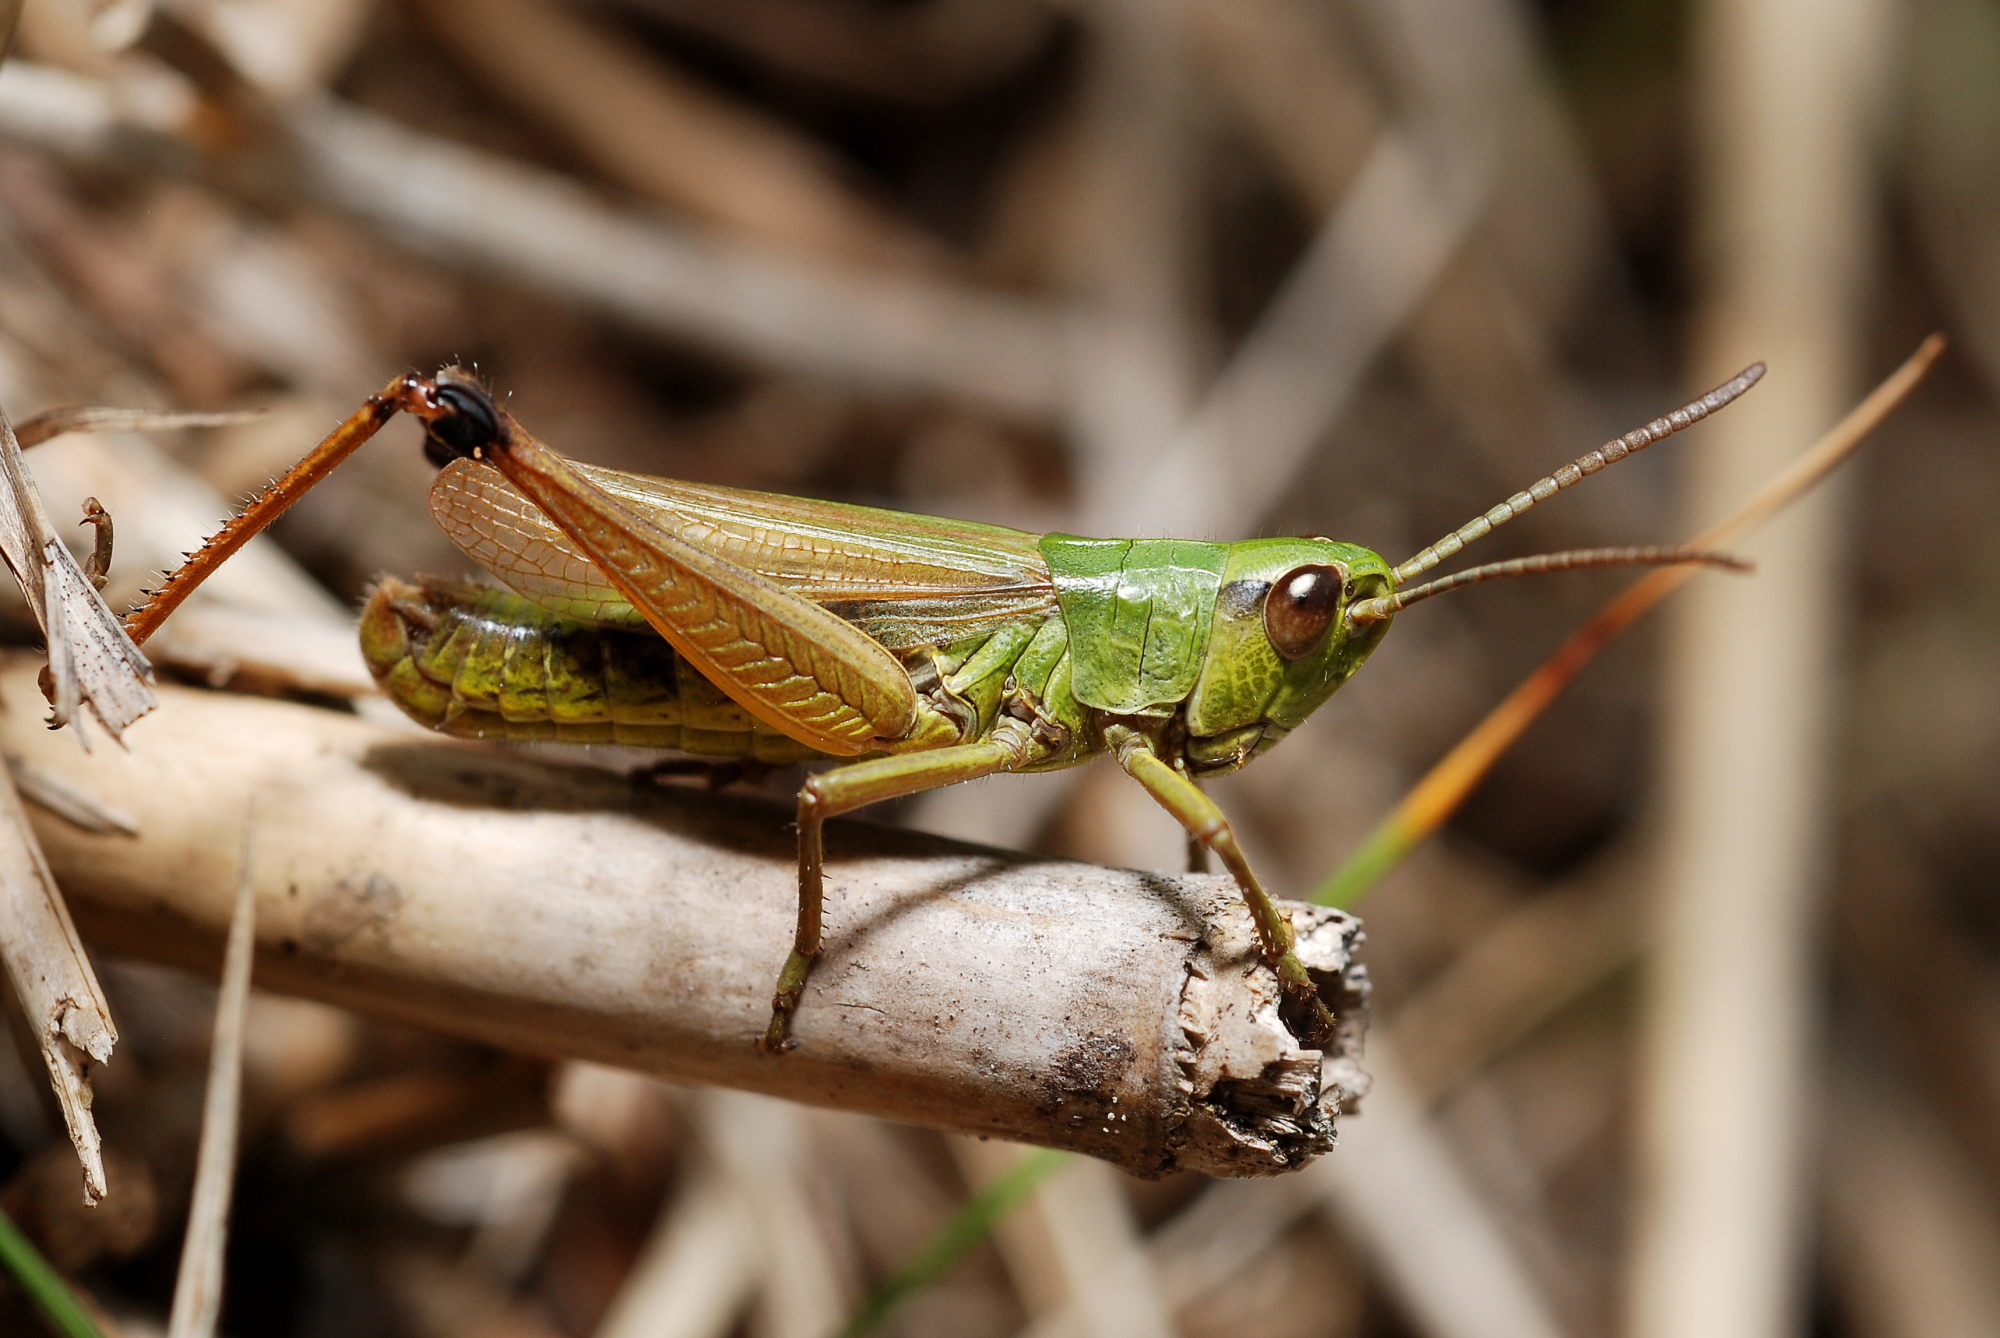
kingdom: Animalia
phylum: Arthropoda
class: Insecta
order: Orthoptera
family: Acrididae
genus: Pseudochorthippus
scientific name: Pseudochorthippus parallelus
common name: Meadow grasshopper
